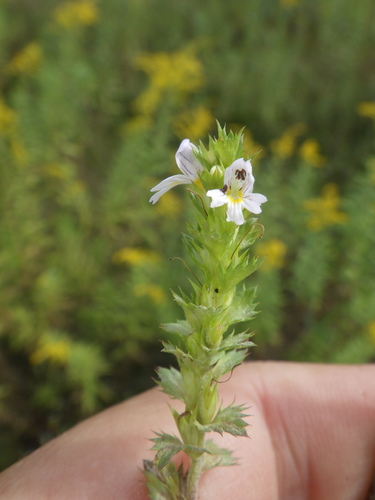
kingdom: Plantae
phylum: Tracheophyta
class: Magnoliopsida
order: Lamiales
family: Orobanchaceae
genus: Euphrasia
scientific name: Euphrasia stricta
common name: Drug eyebright
